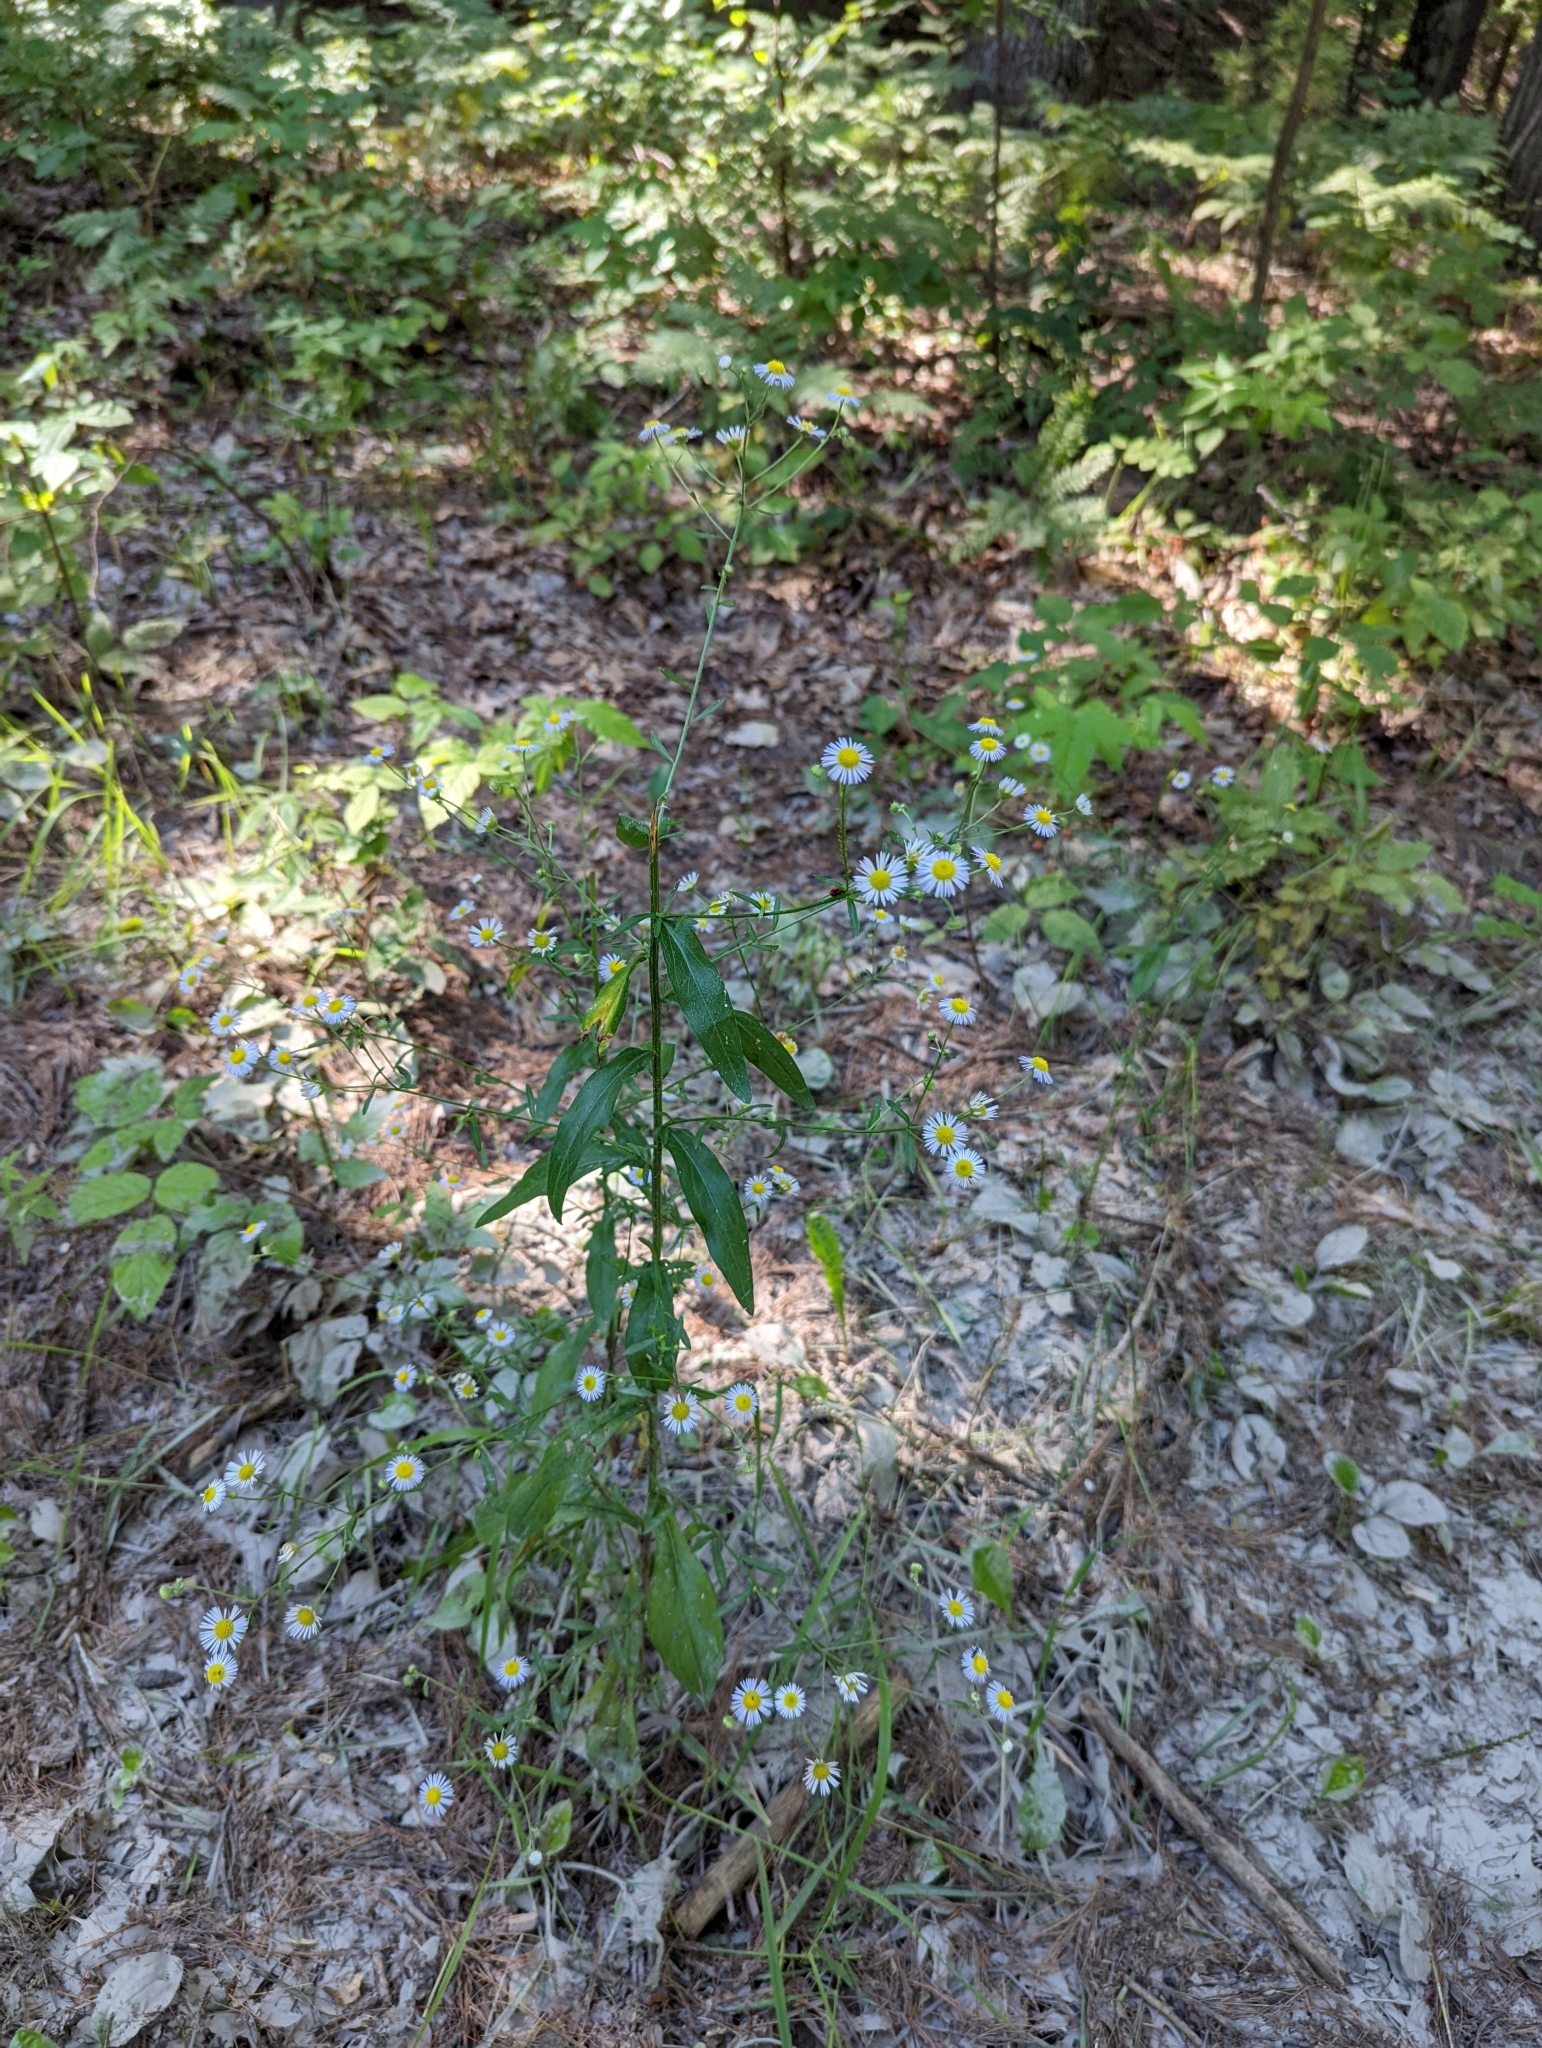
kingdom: Plantae
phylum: Tracheophyta
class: Magnoliopsida
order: Asterales
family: Asteraceae
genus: Erigeron
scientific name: Erigeron strigosus
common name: Common eastern fleabane
